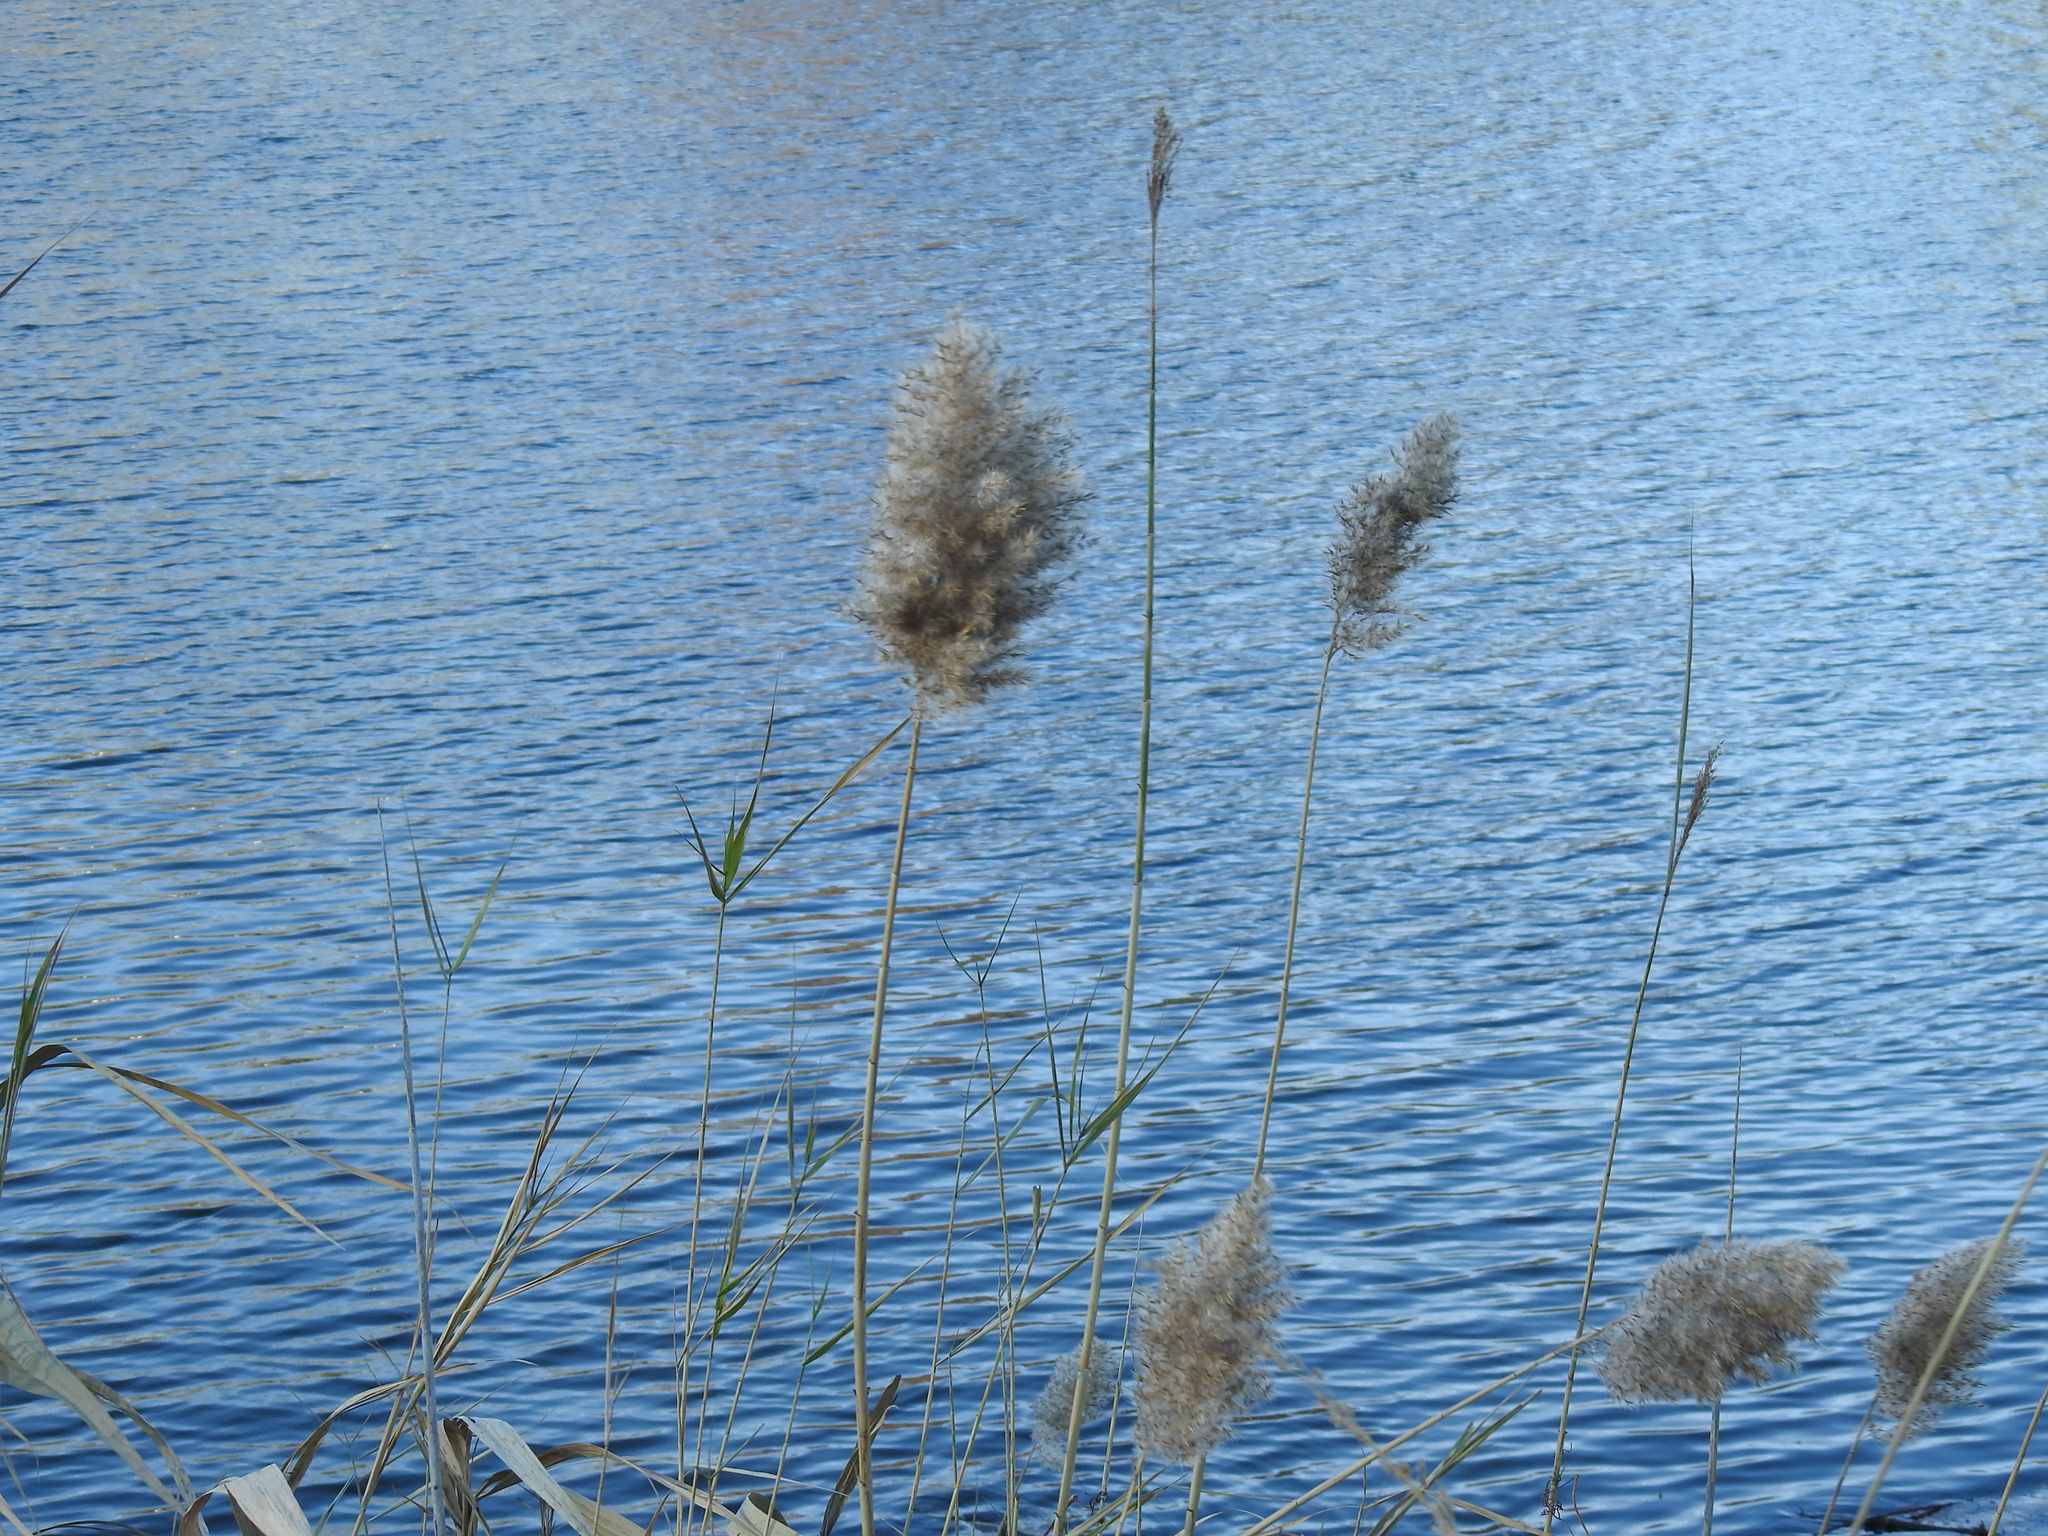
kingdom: Plantae
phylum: Tracheophyta
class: Liliopsida
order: Poales
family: Poaceae
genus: Phragmites
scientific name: Phragmites australis
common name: Common reed
